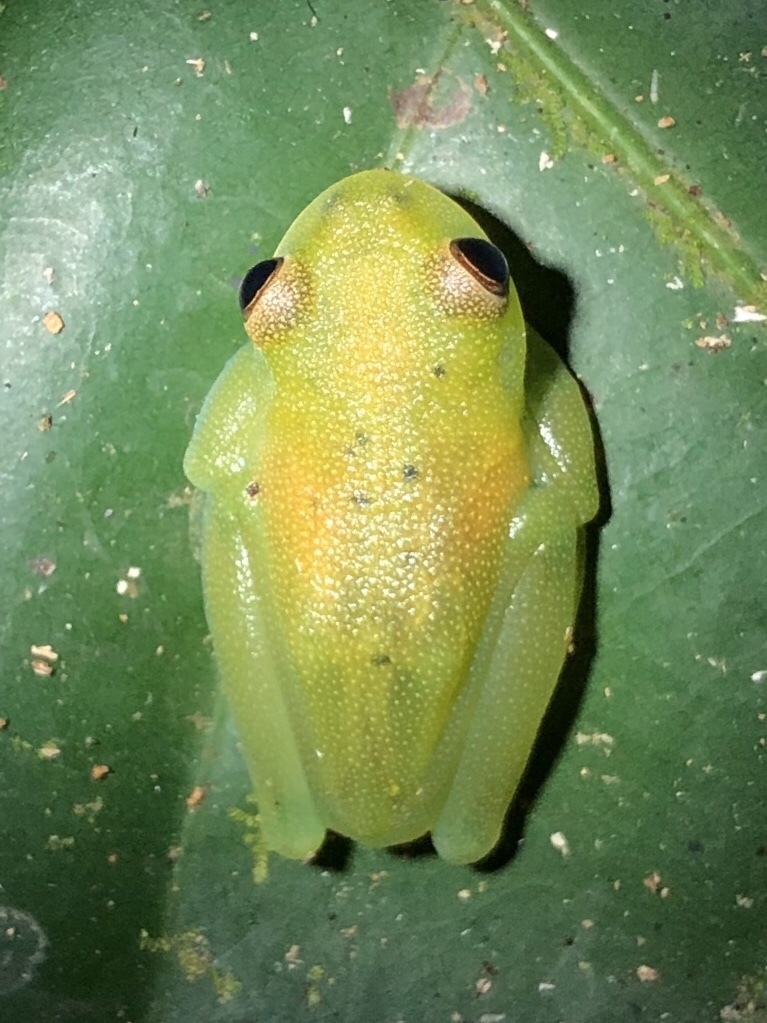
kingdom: Animalia
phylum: Chordata
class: Amphibia
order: Anura
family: Centrolenidae
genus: Cochranella
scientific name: Cochranella granulosa
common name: Grainy cochran frog
